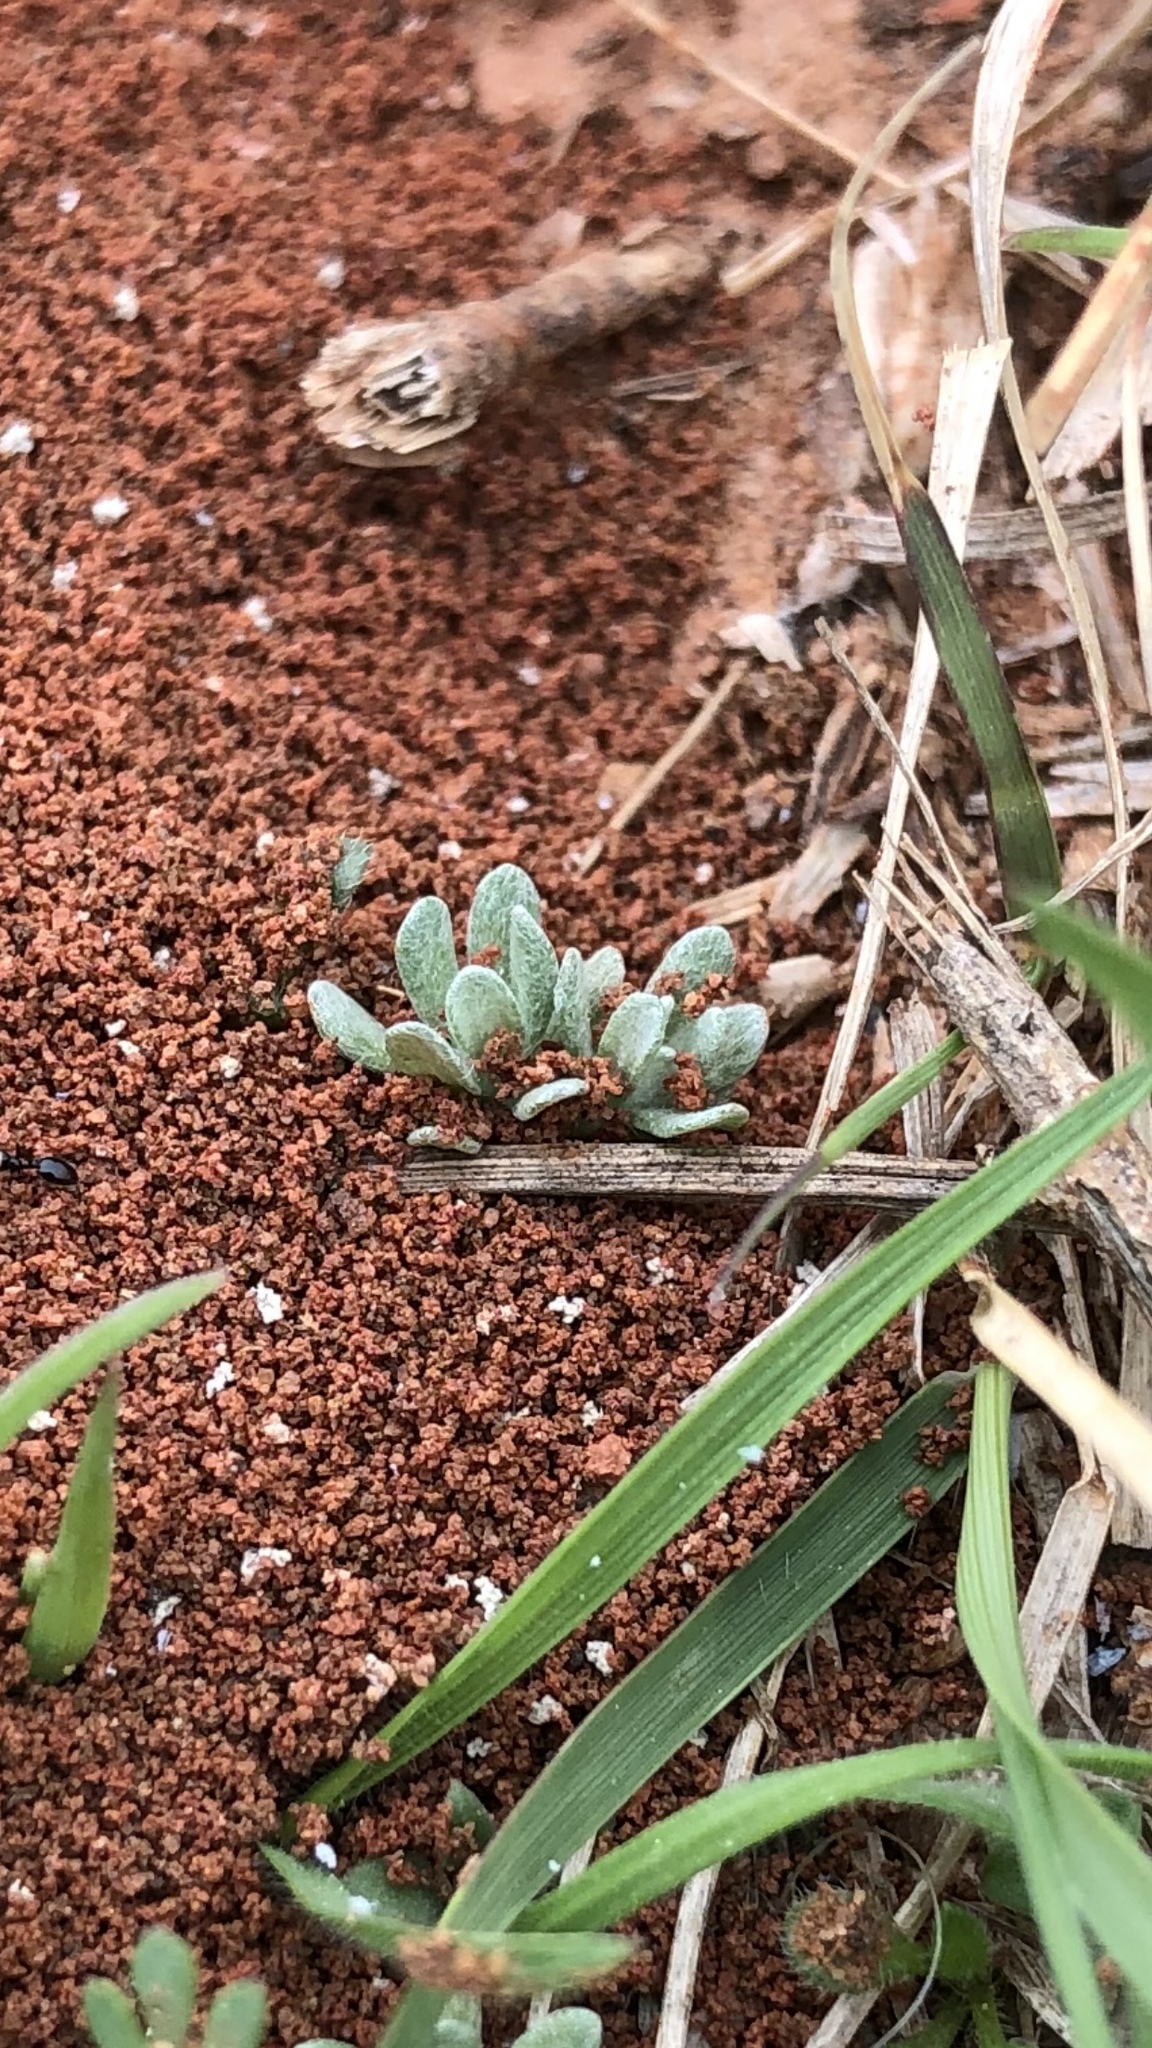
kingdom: Plantae
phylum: Tracheophyta
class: Magnoliopsida
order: Asterales
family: Asteraceae
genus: Diaperia
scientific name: Diaperia prolifera
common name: Big-head rabbit-tobacco
